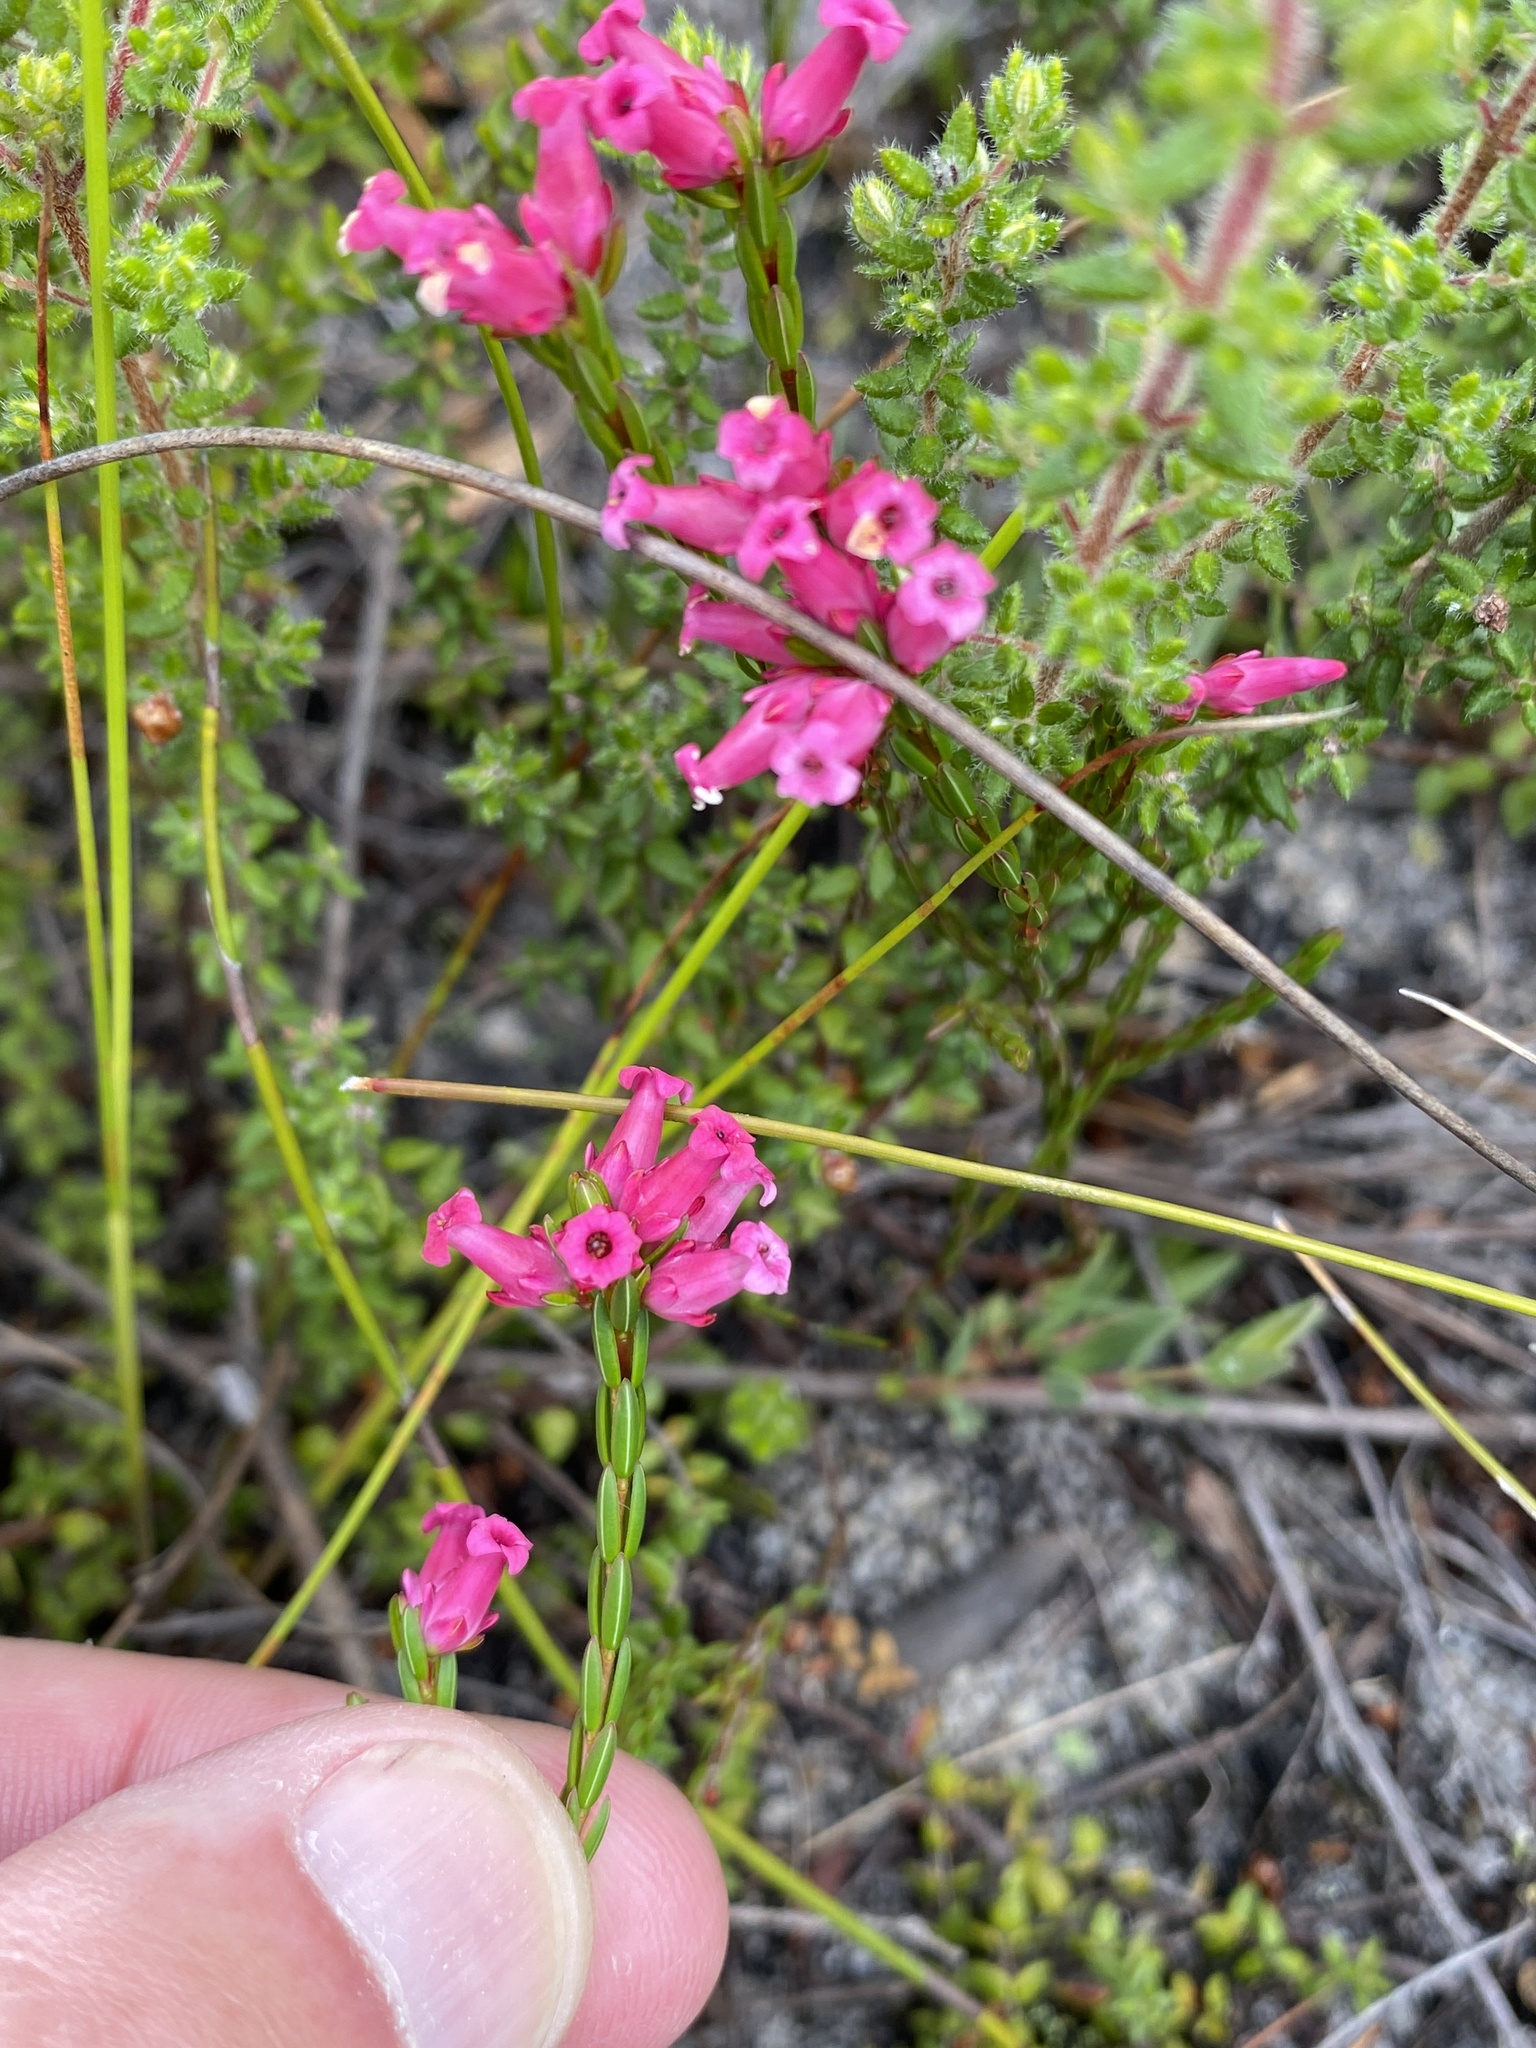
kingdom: Plantae
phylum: Tracheophyta
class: Magnoliopsida
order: Ericales
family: Ericaceae
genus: Erica
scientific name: Erica steinbergiana
